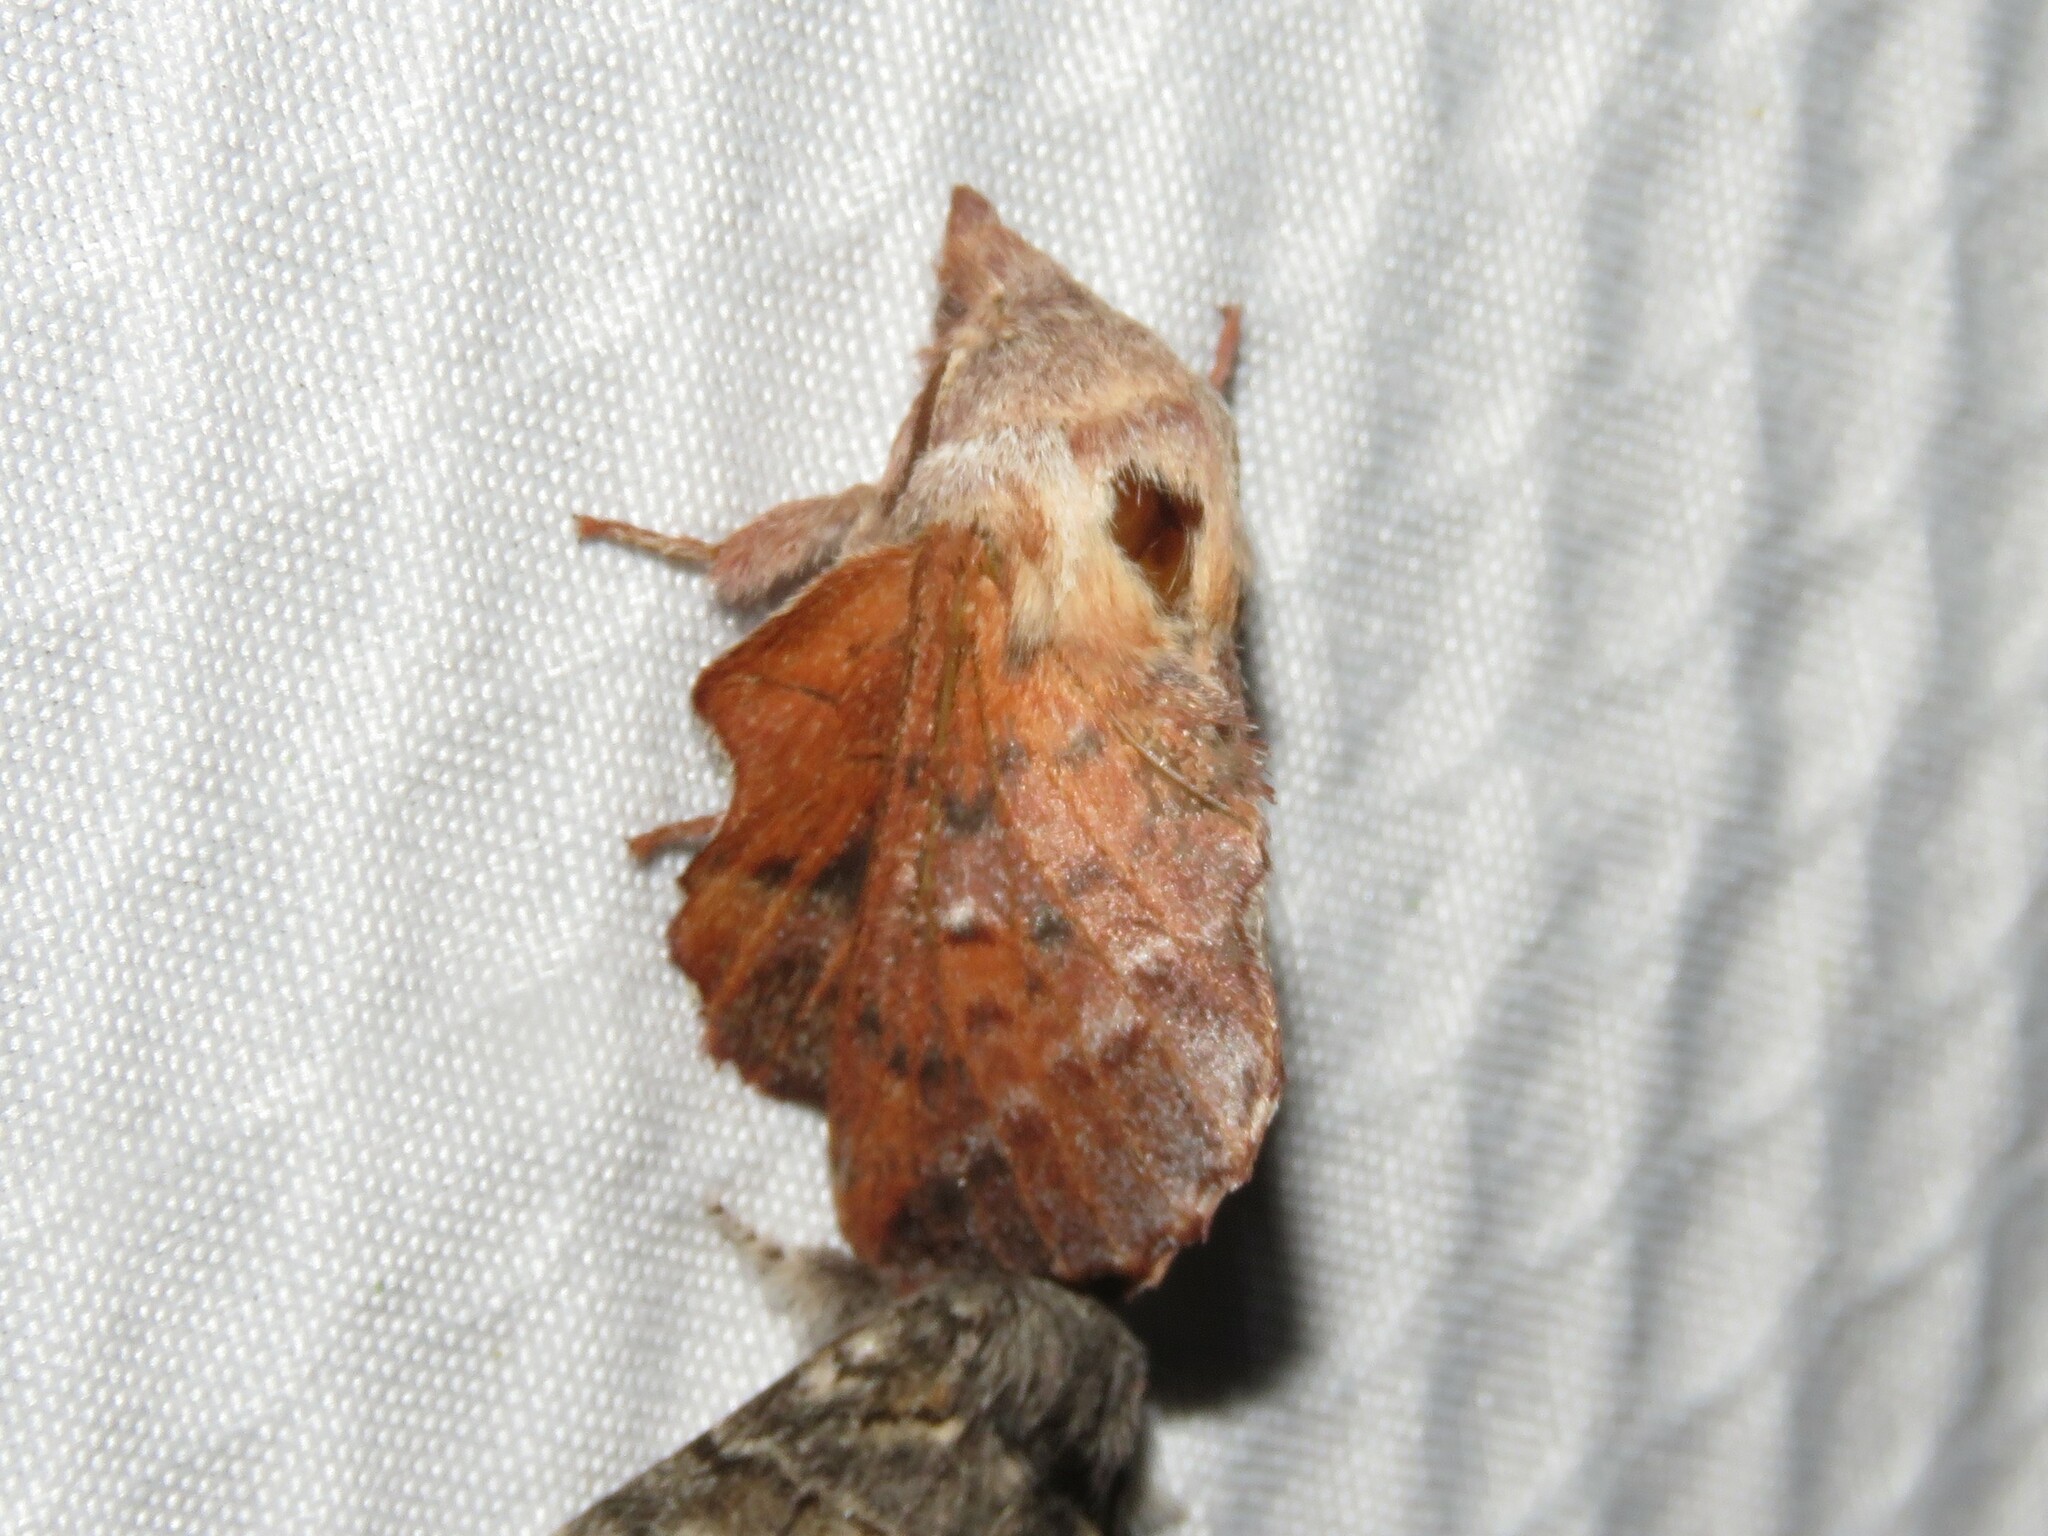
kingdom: Animalia
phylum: Arthropoda
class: Insecta
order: Lepidoptera
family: Lasiocampidae
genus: Phyllodesma
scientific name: Phyllodesma americana
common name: American lappet moth
